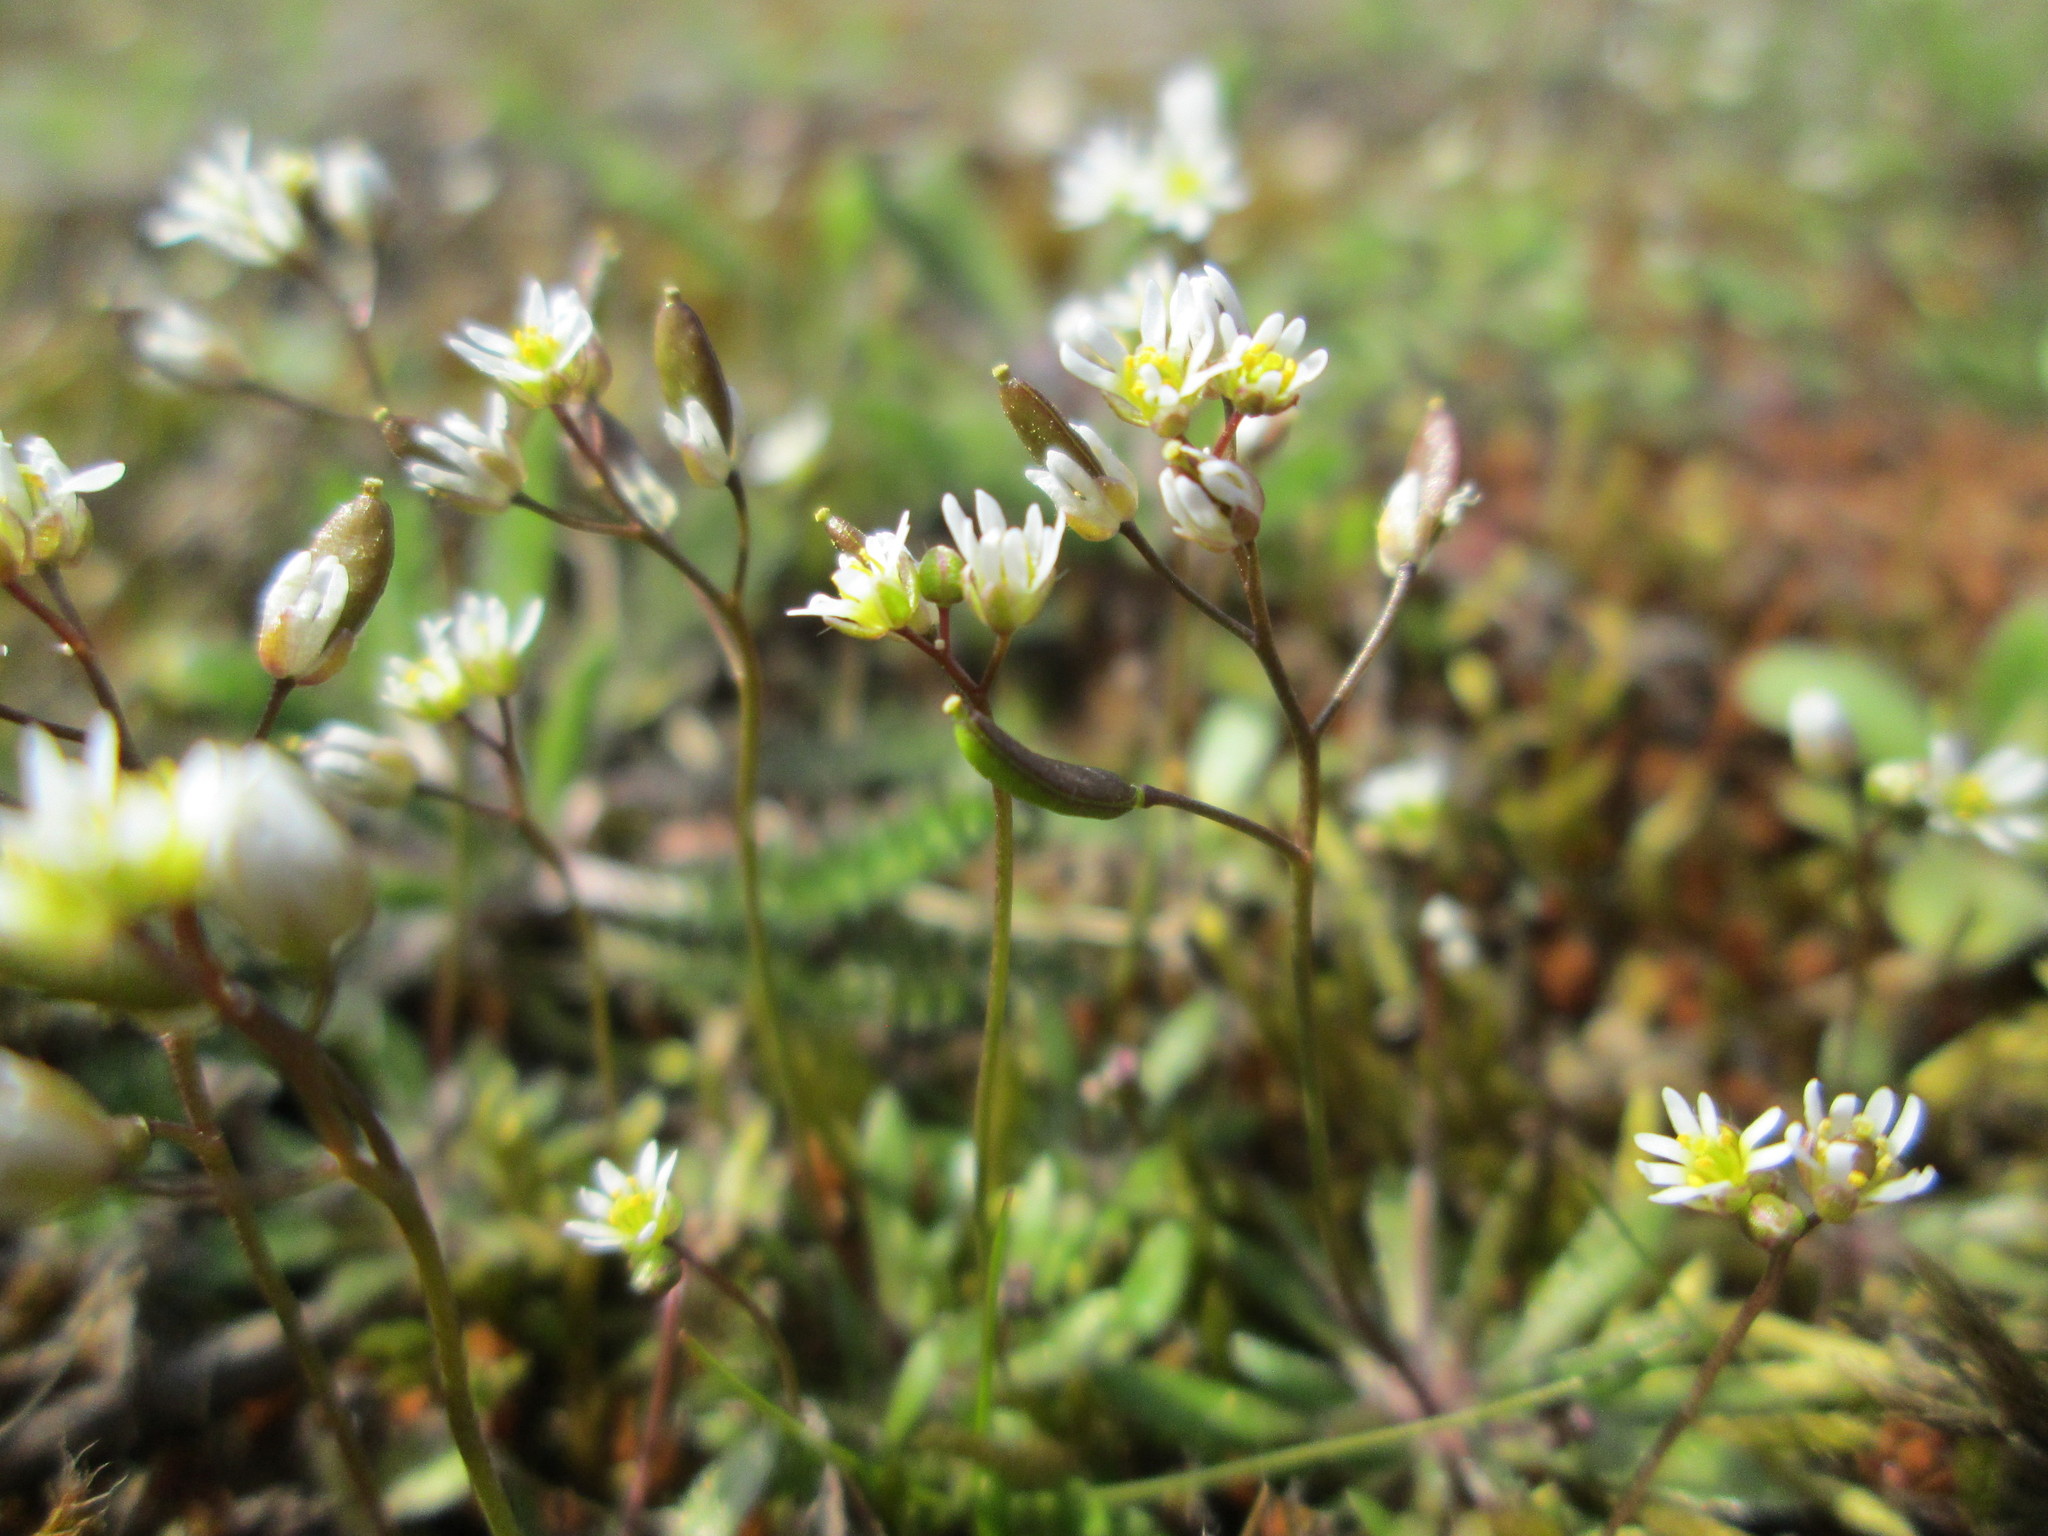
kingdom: Plantae
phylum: Tracheophyta
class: Magnoliopsida
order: Brassicales
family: Brassicaceae
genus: Draba
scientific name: Draba verna
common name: Spring draba
